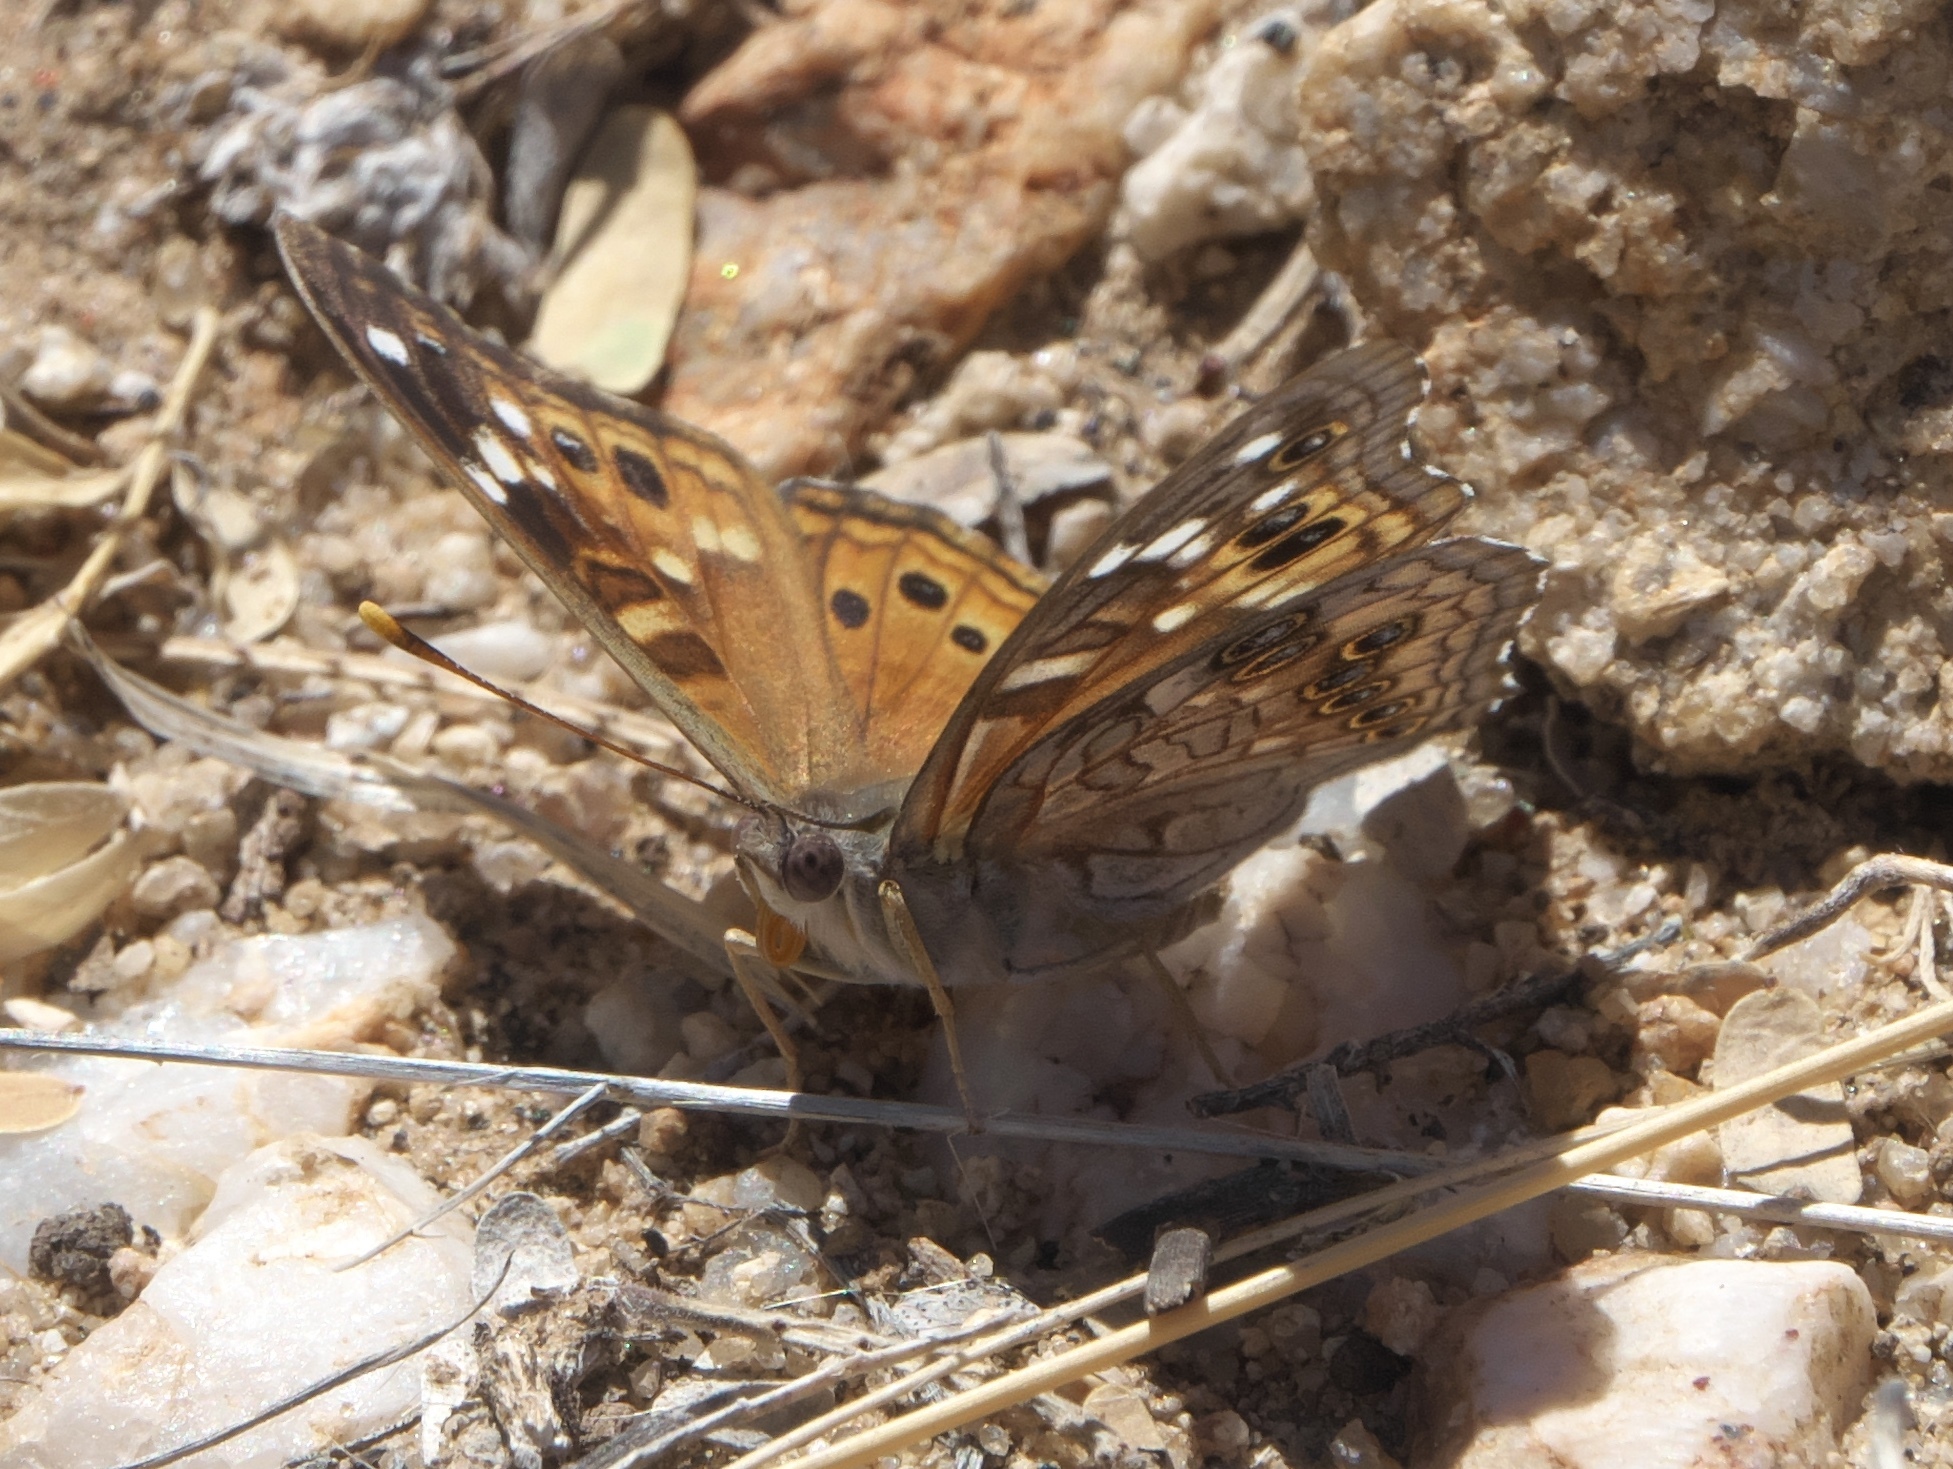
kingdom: Animalia
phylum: Arthropoda
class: Insecta
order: Lepidoptera
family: Nymphalidae
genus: Asterocampa
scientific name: Asterocampa leilia
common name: Empress leilia
